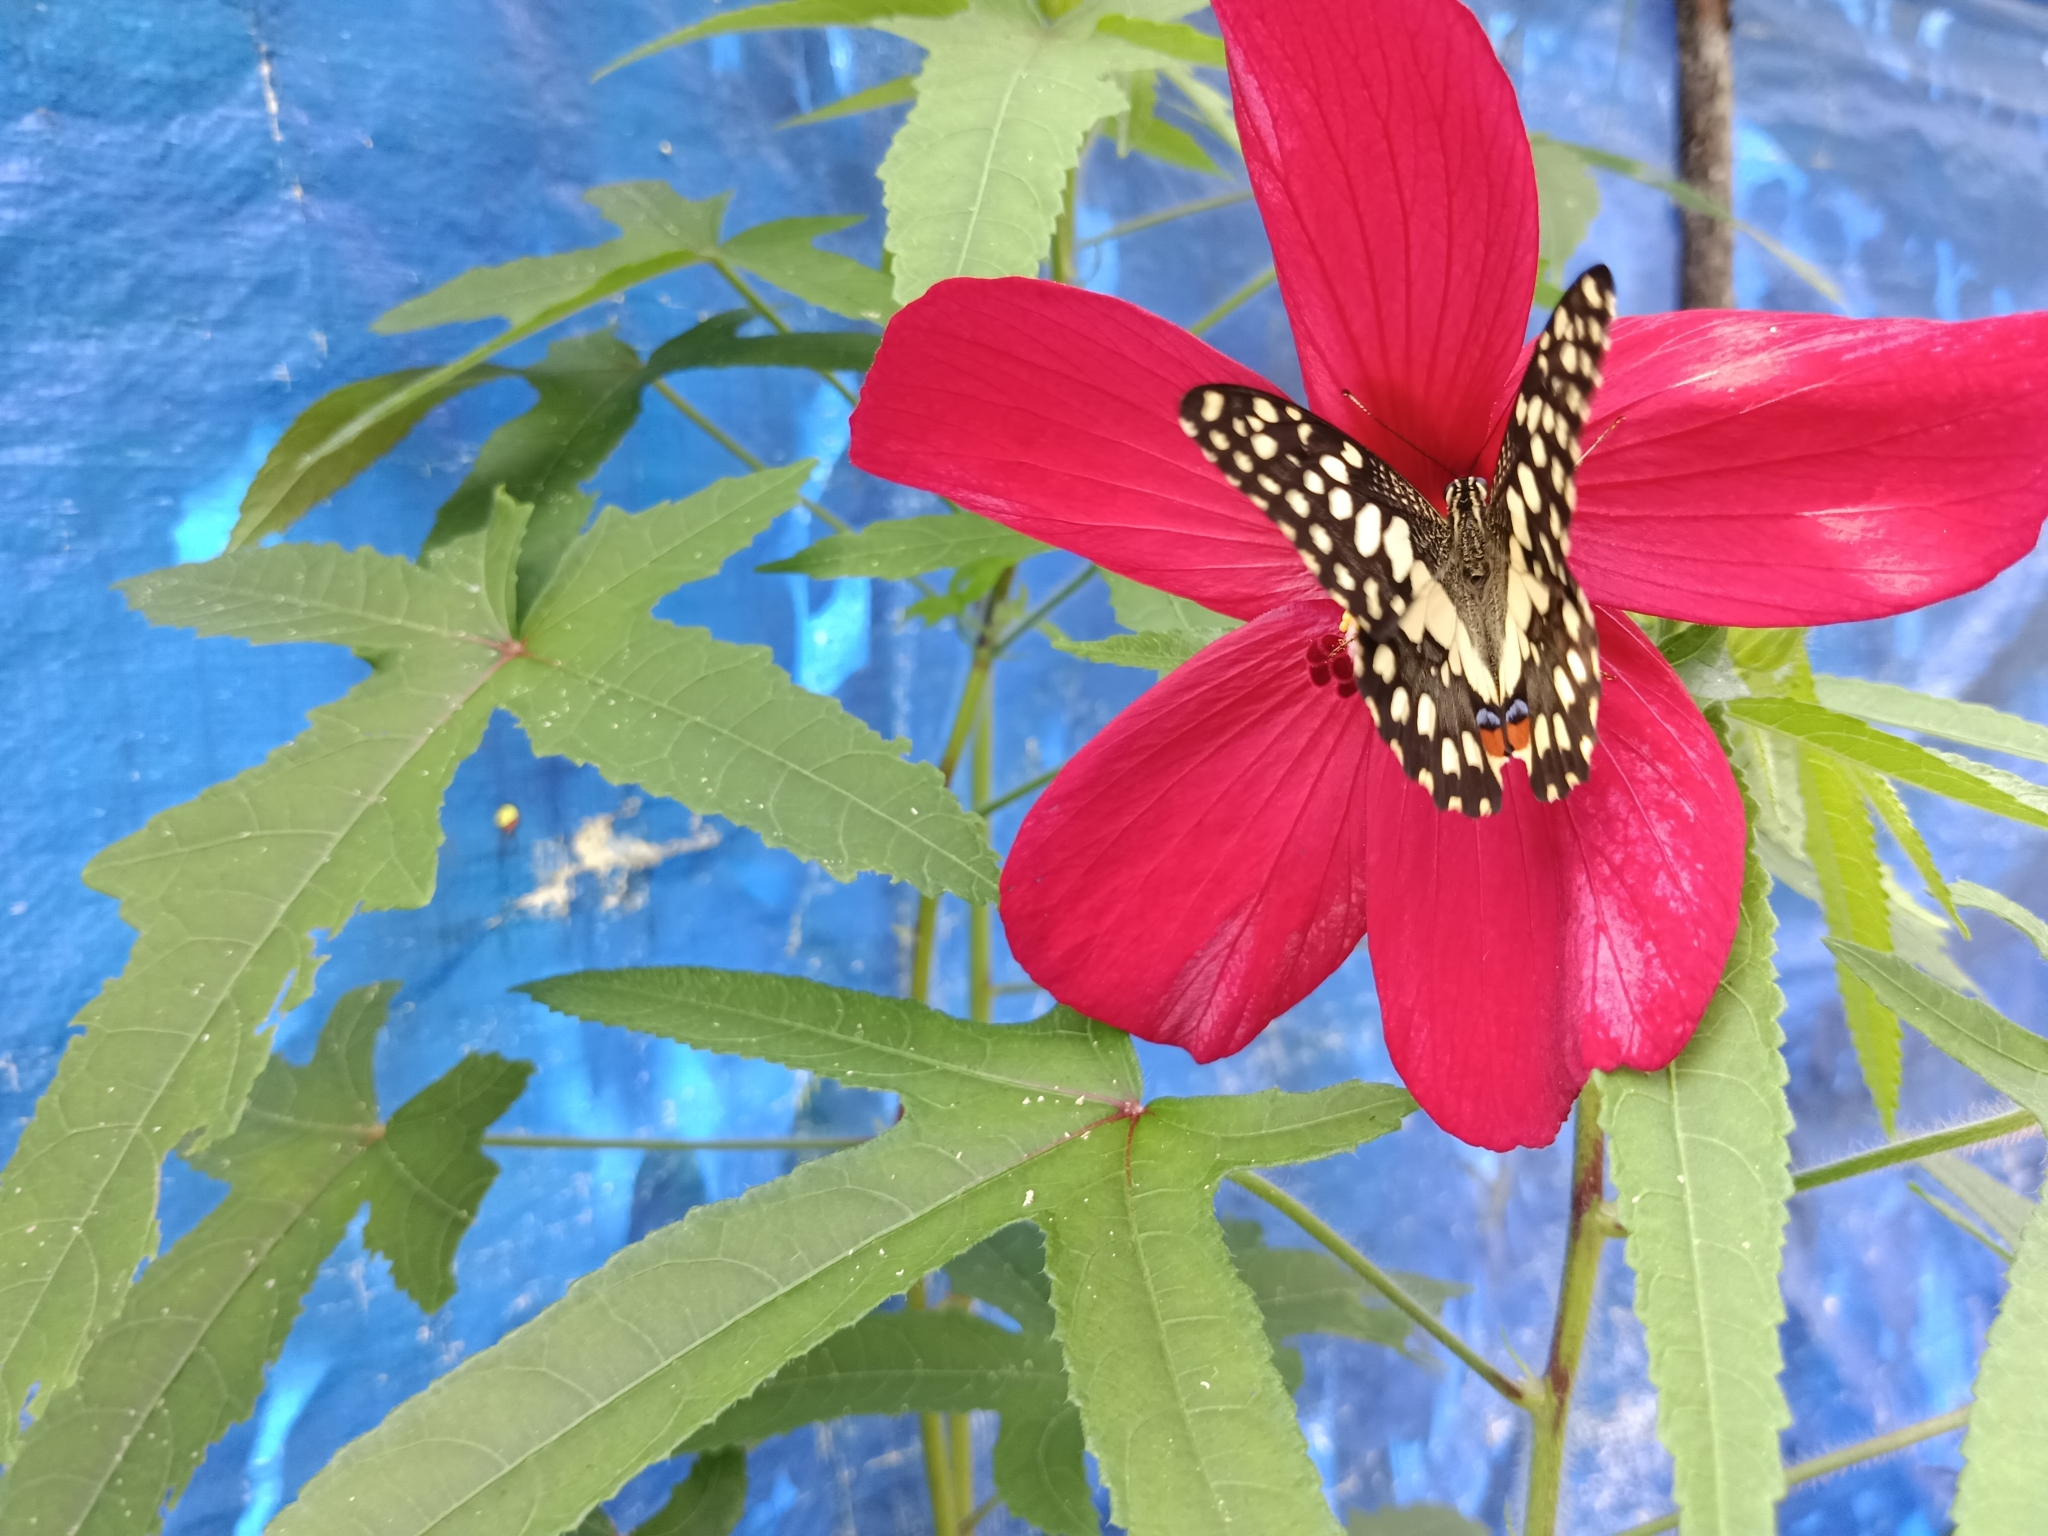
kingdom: Animalia
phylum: Arthropoda
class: Insecta
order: Lepidoptera
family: Papilionidae
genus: Papilio
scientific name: Papilio demoleus
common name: Lime butterfly
